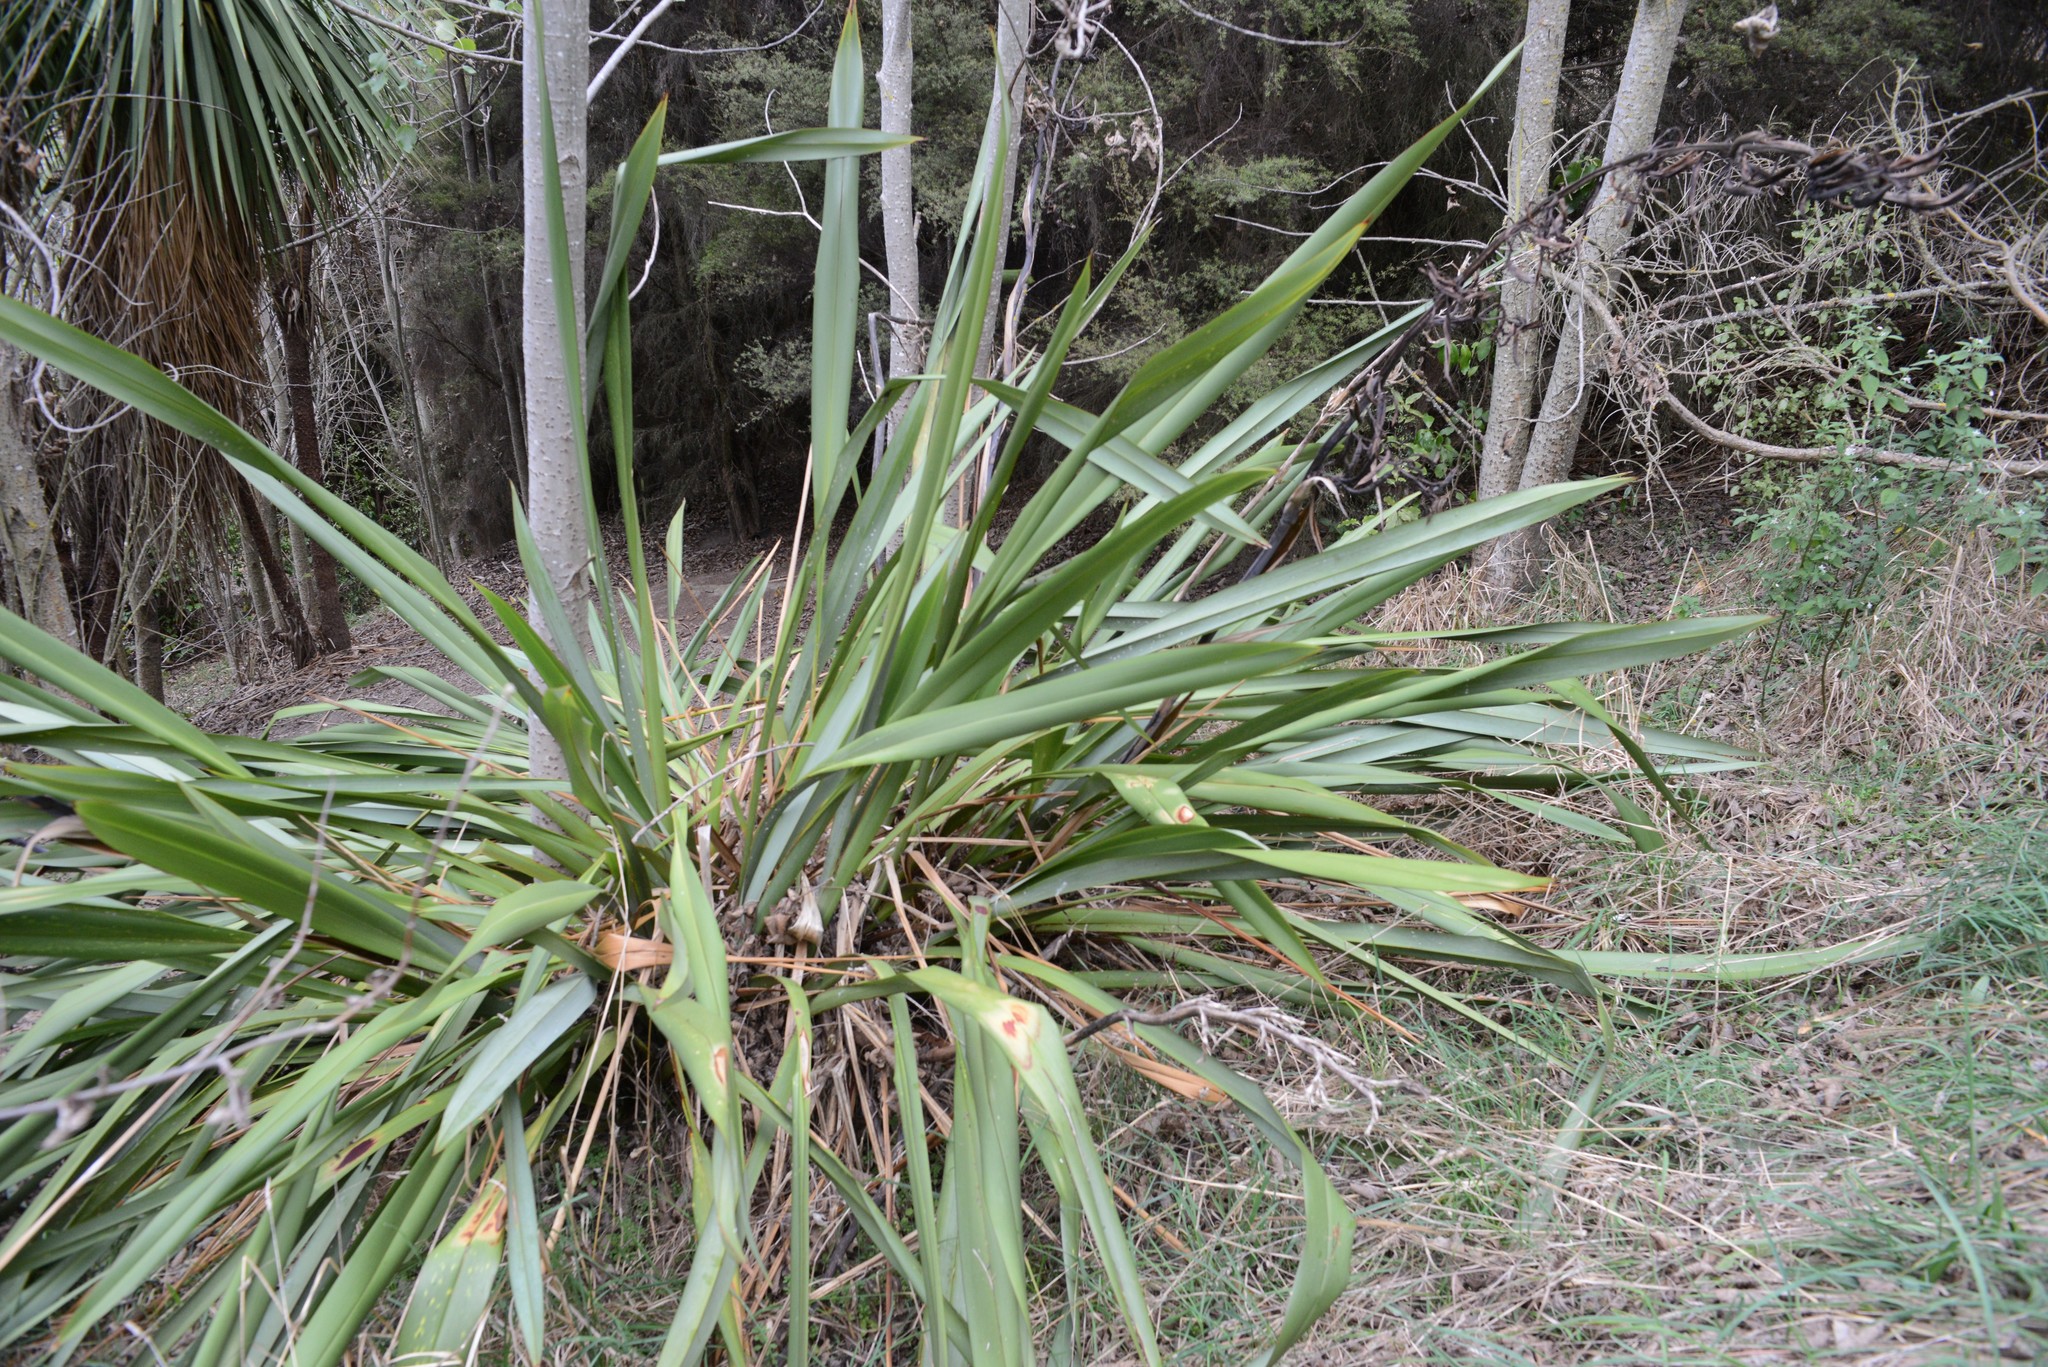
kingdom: Plantae
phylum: Tracheophyta
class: Liliopsida
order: Asparagales
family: Asphodelaceae
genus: Phormium
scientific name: Phormium tenax
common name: New zealand flax
